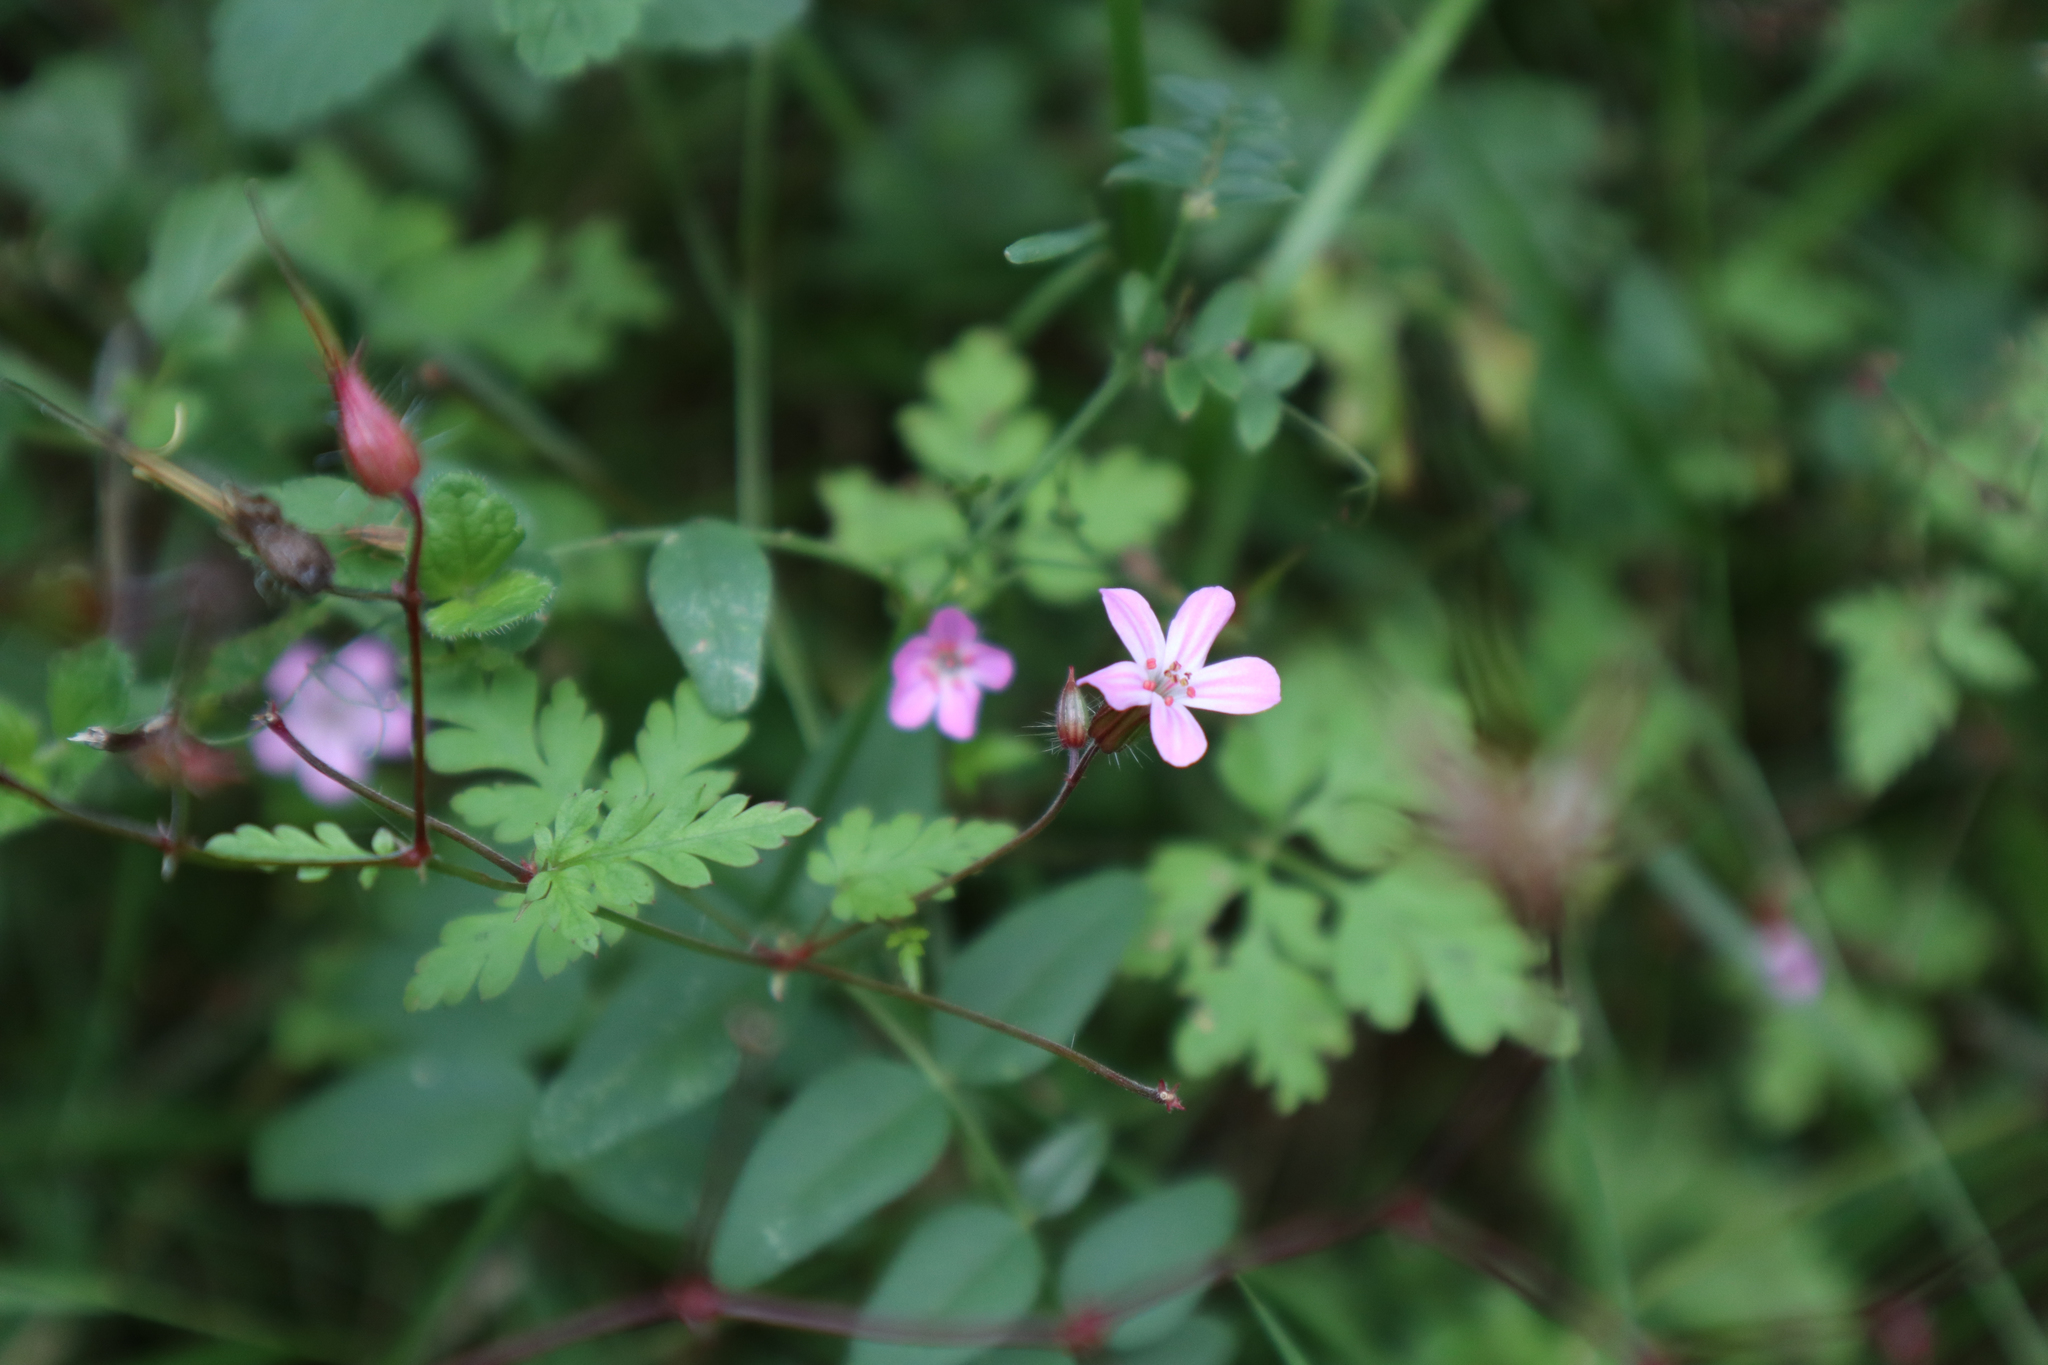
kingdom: Plantae
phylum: Tracheophyta
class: Magnoliopsida
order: Geraniales
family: Geraniaceae
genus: Geranium
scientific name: Geranium robertianum
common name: Herb-robert
